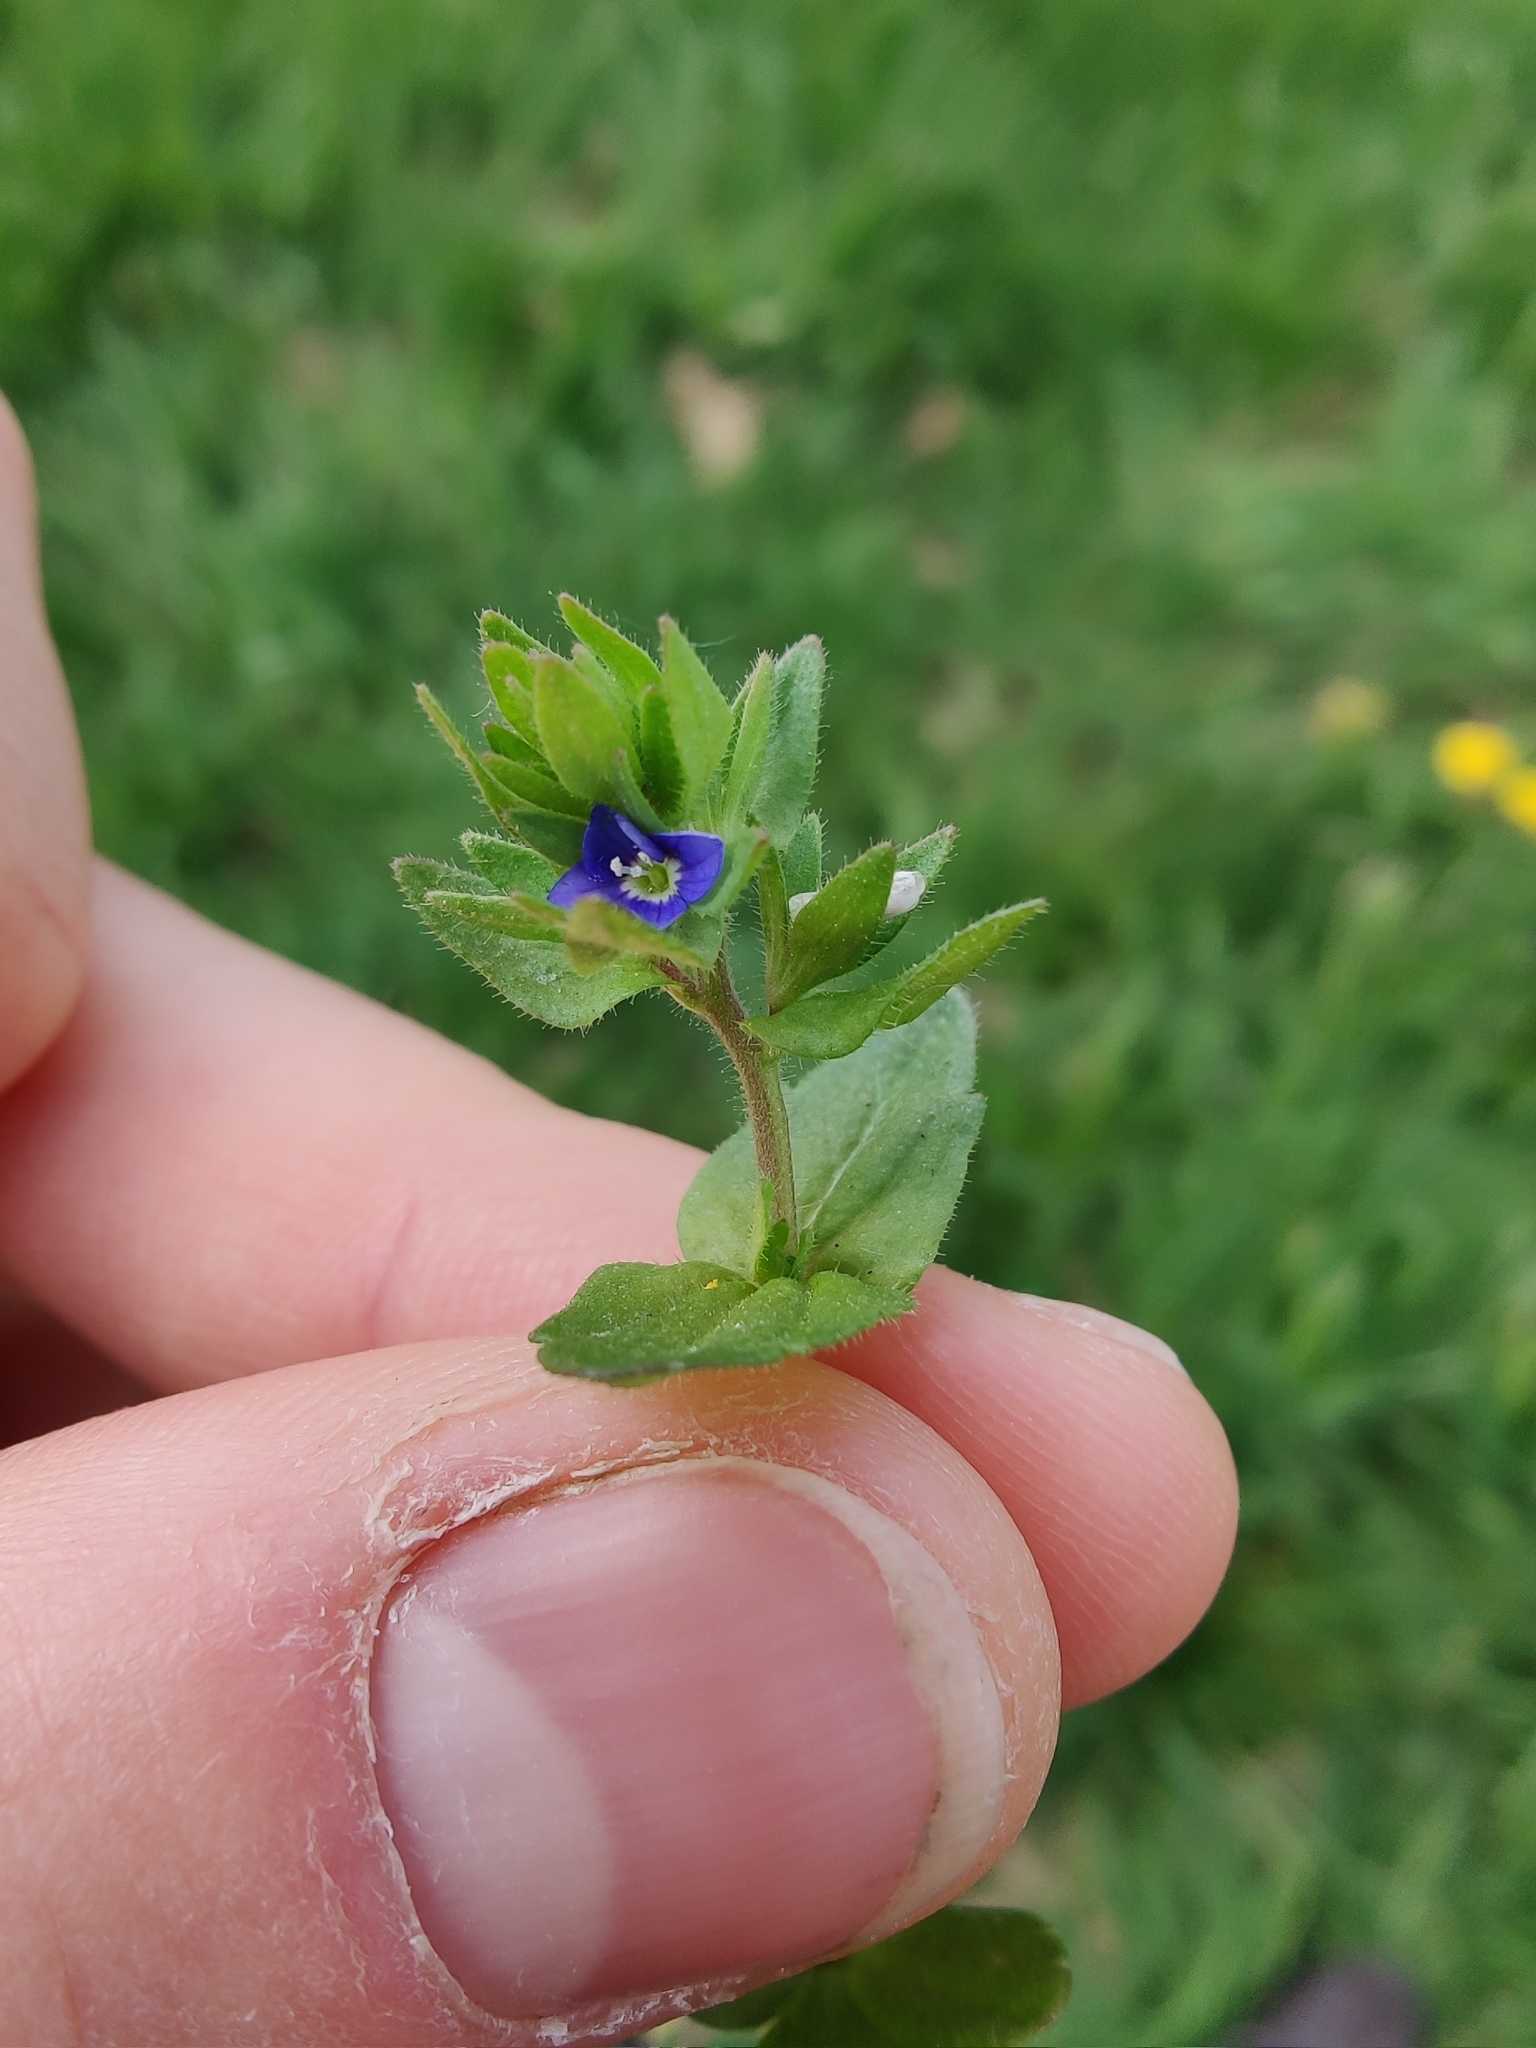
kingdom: Plantae
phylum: Tracheophyta
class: Magnoliopsida
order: Lamiales
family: Plantaginaceae
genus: Veronica
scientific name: Veronica arvensis
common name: Corn speedwell
